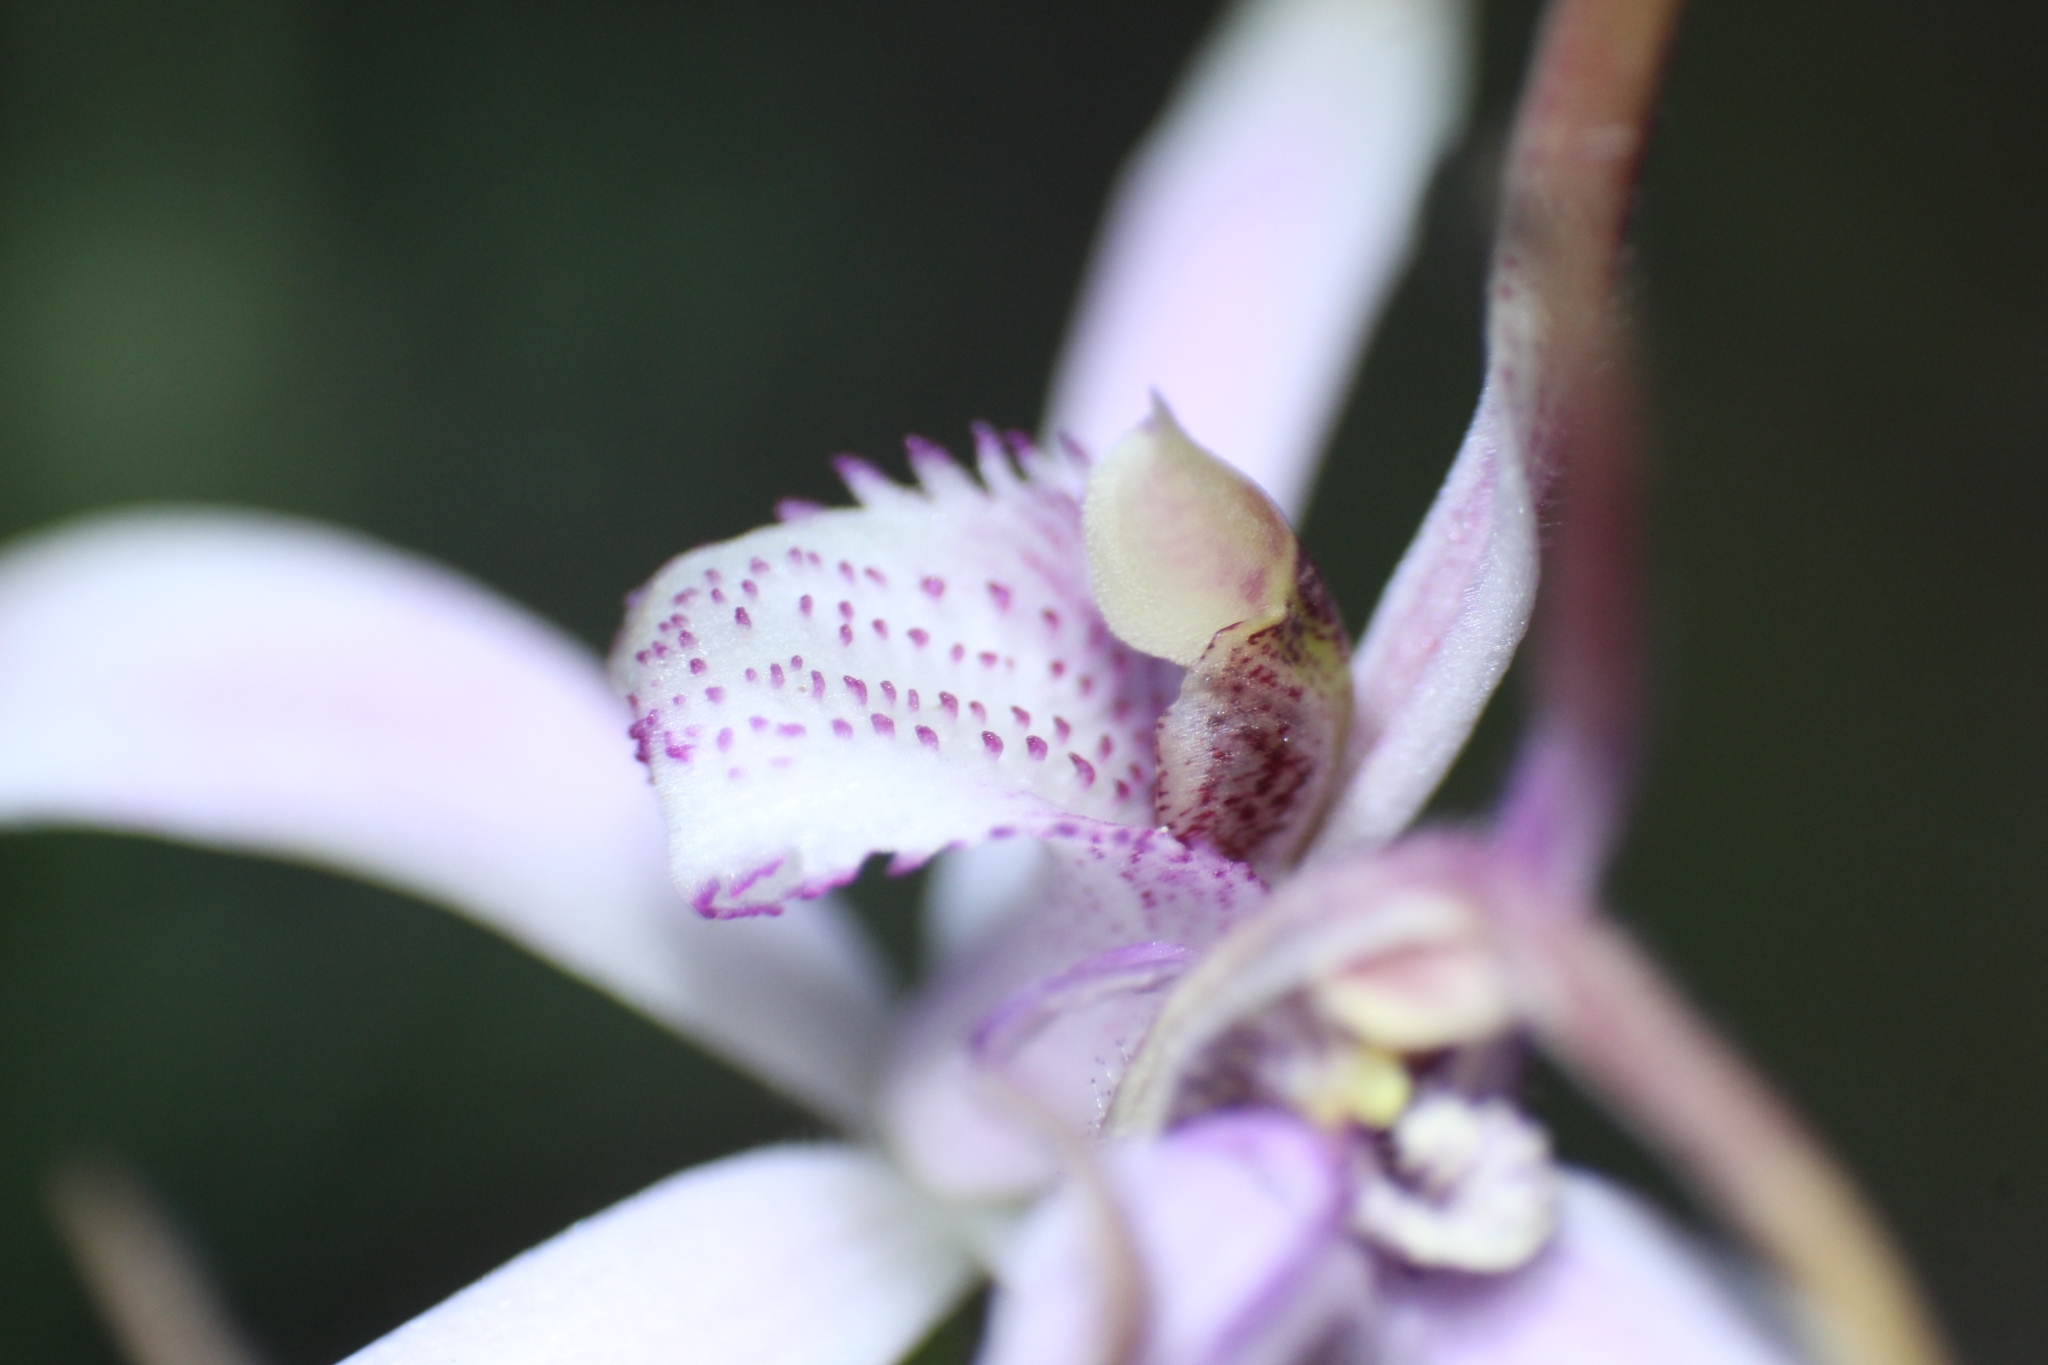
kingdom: Plantae
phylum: Tracheophyta
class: Liliopsida
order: Asparagales
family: Orchidaceae
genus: Caladenia
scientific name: Caladenia hirta
